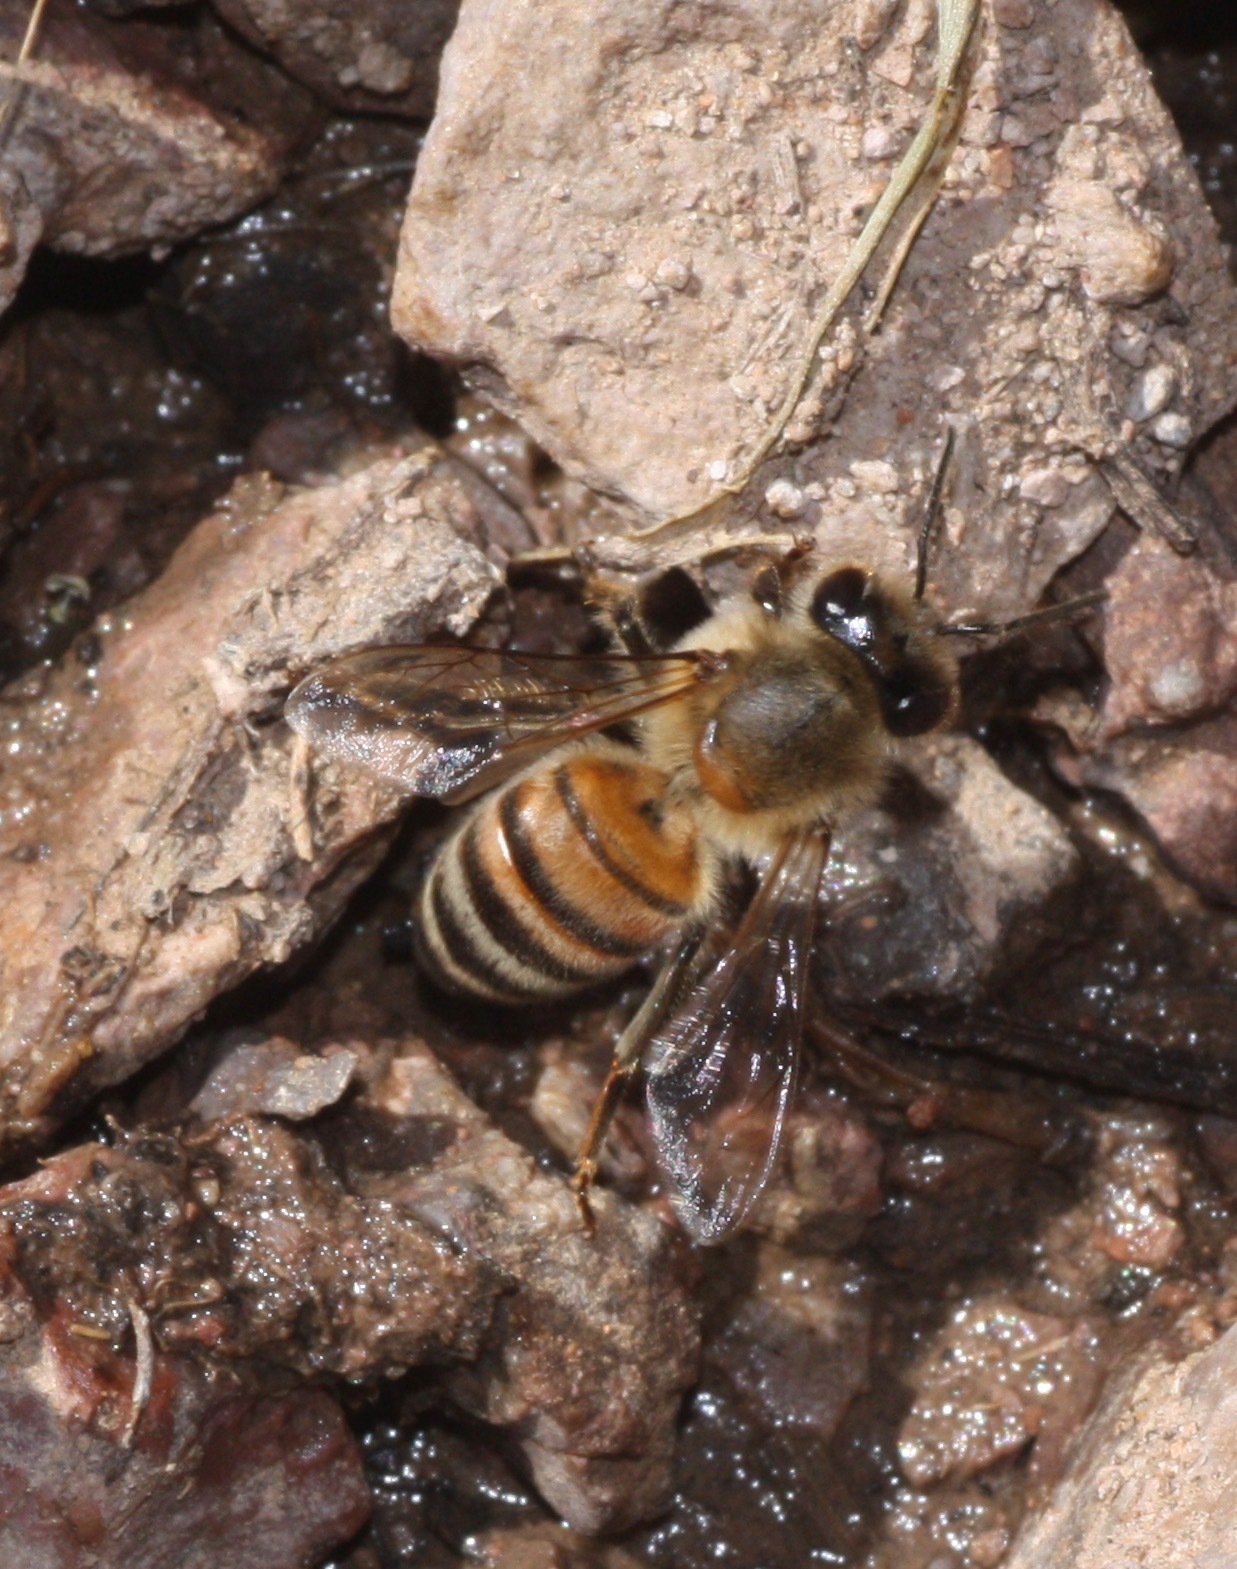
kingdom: Animalia
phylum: Arthropoda
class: Insecta
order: Hymenoptera
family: Apidae
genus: Apis
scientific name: Apis mellifera
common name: Honey bee
